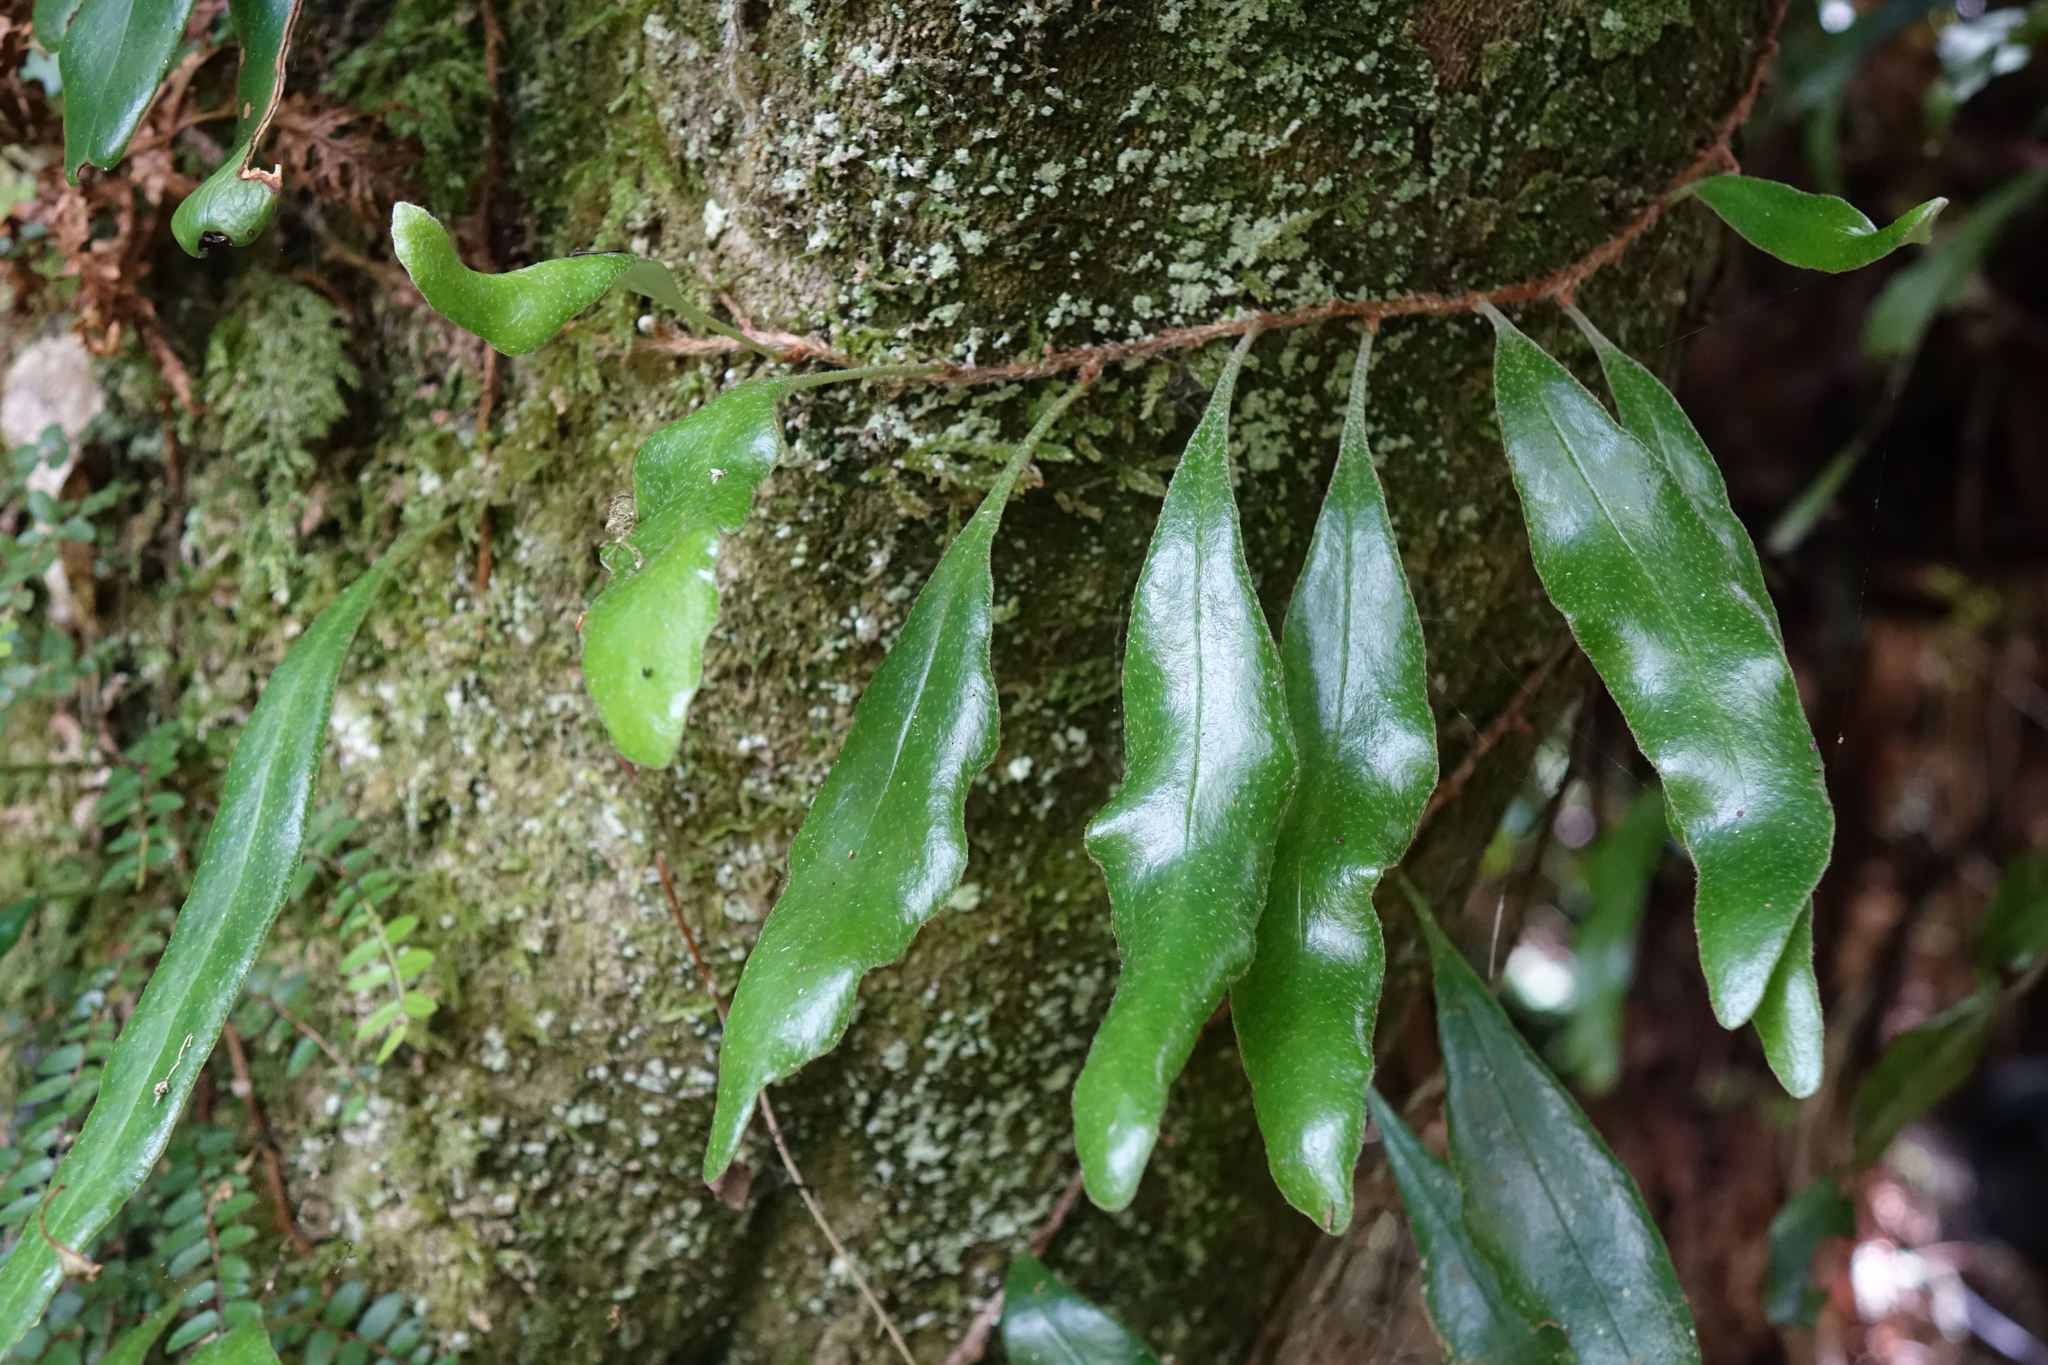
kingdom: Plantae
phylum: Tracheophyta
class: Polypodiopsida
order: Polypodiales
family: Polypodiaceae
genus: Pyrrosia
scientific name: Pyrrosia eleagnifolia
